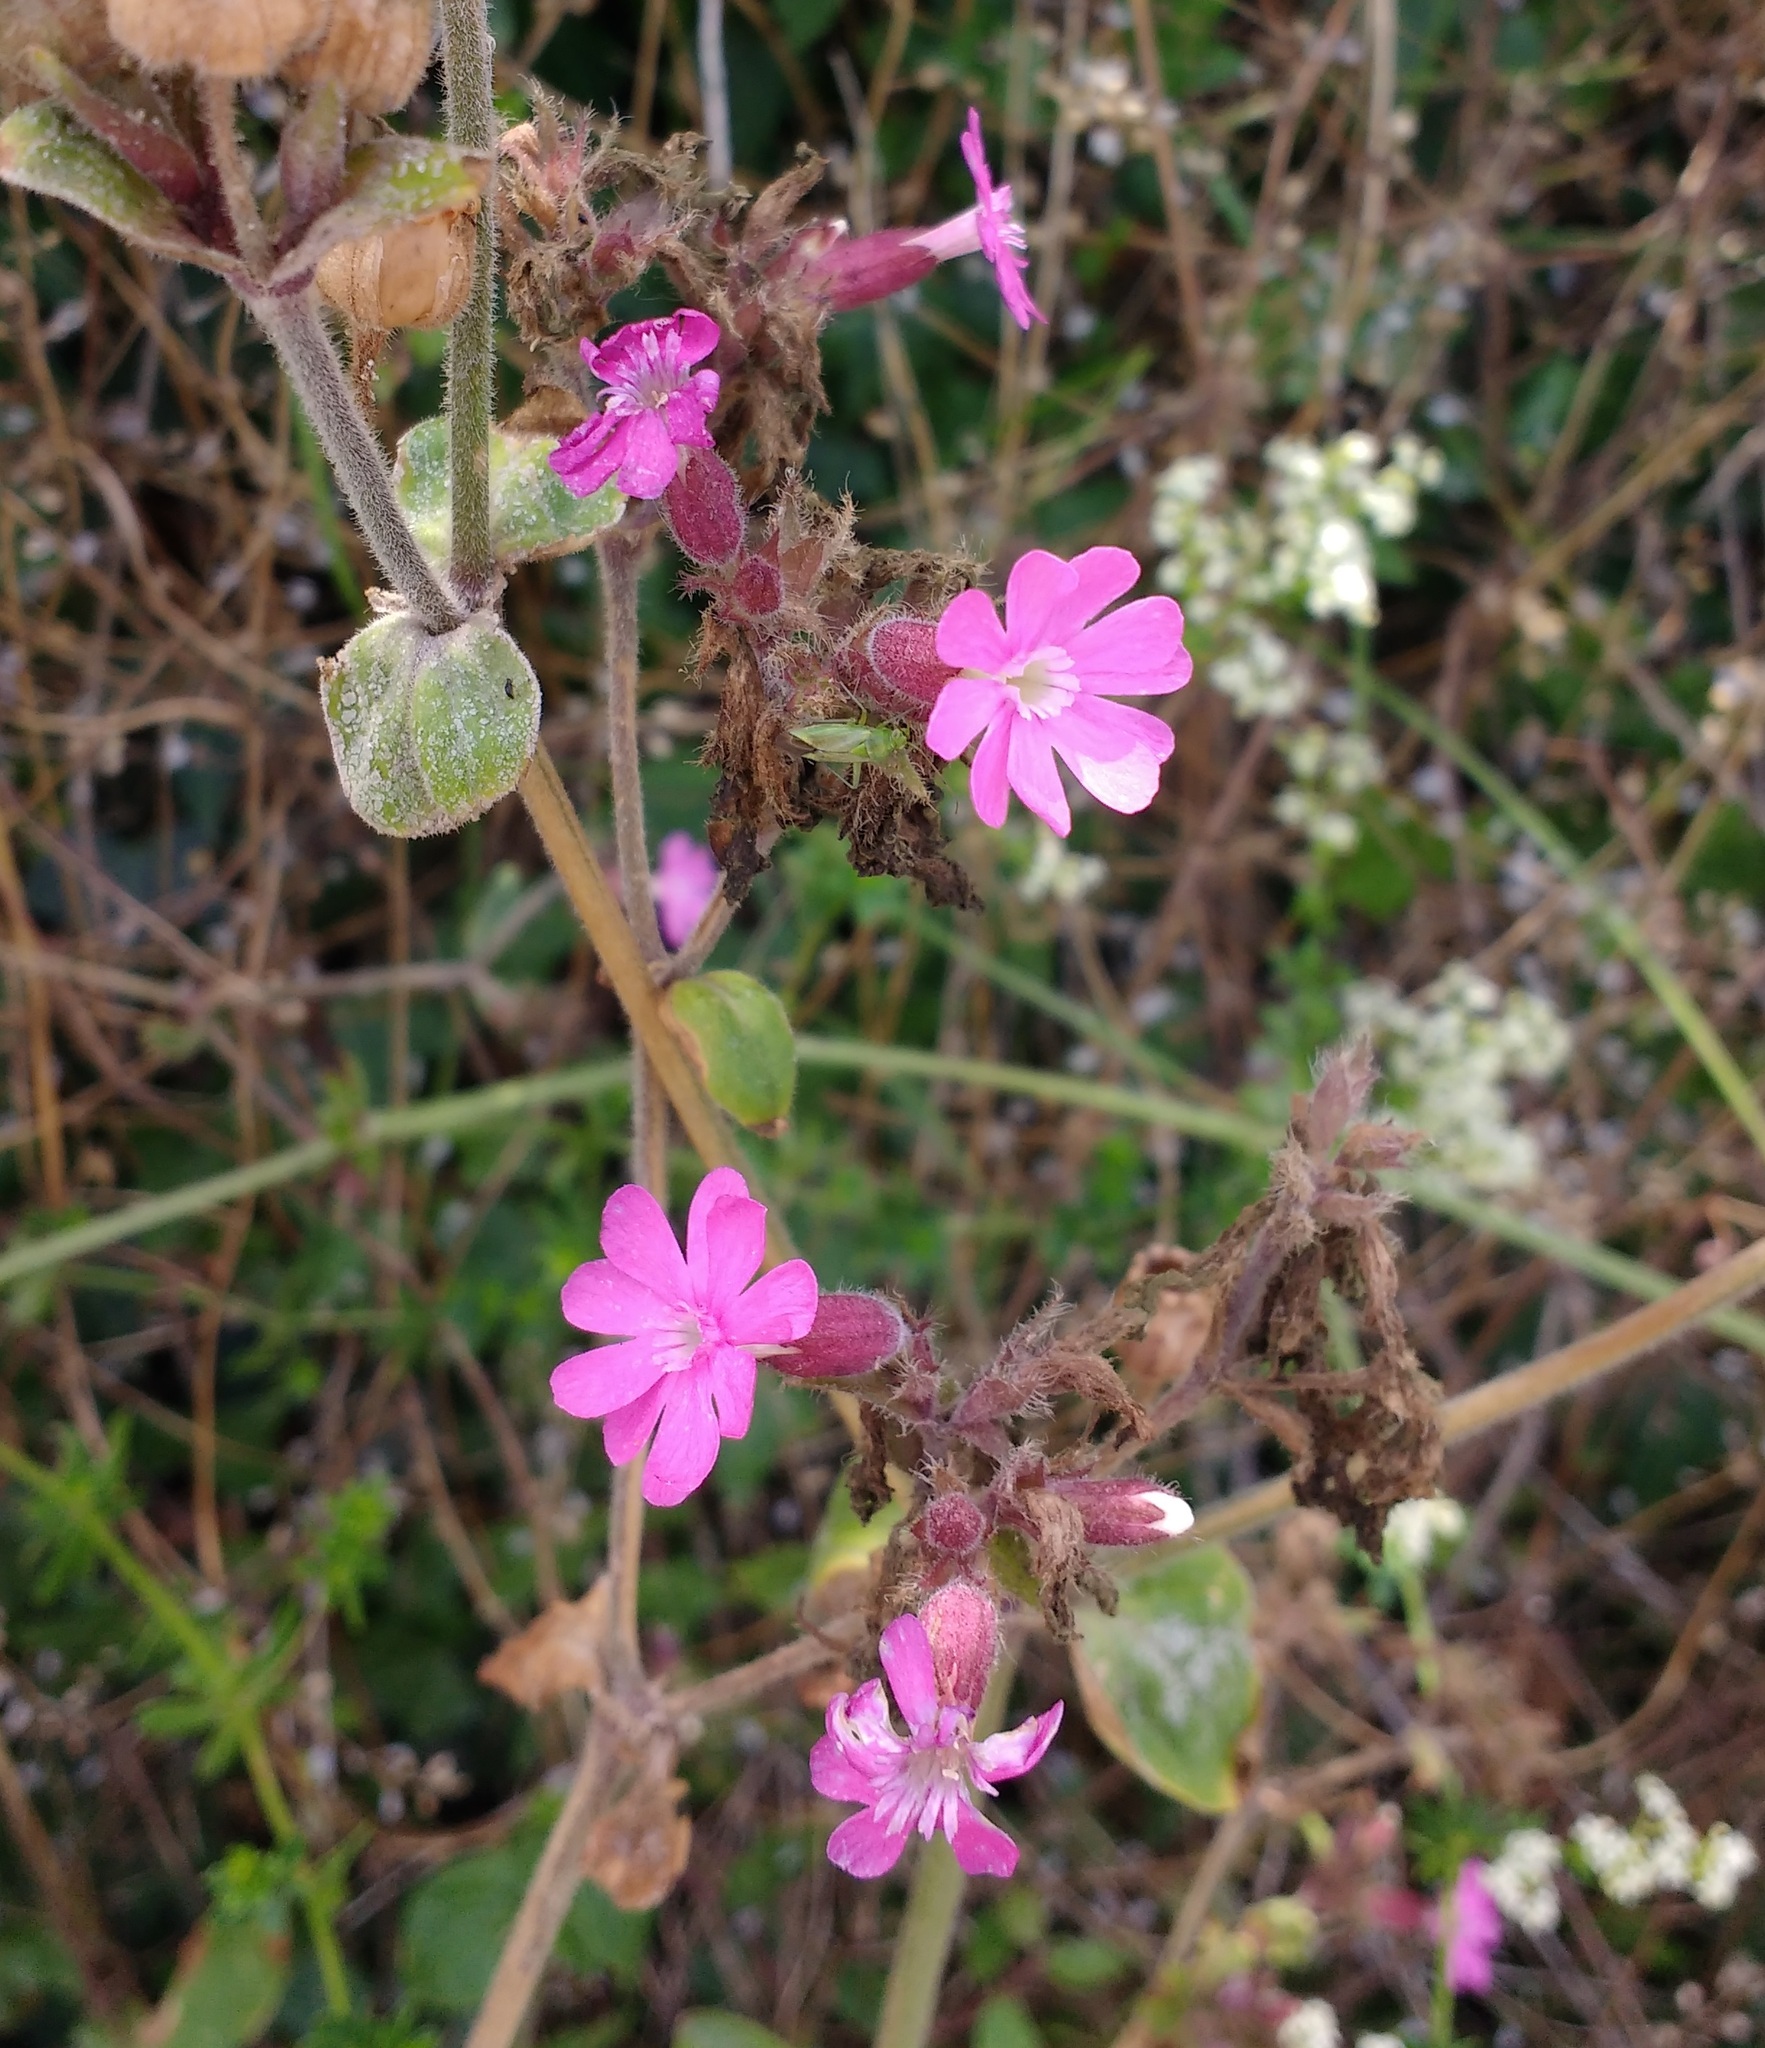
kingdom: Plantae
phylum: Tracheophyta
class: Magnoliopsida
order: Caryophyllales
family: Caryophyllaceae
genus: Silene
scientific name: Silene dioica
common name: Red campion
